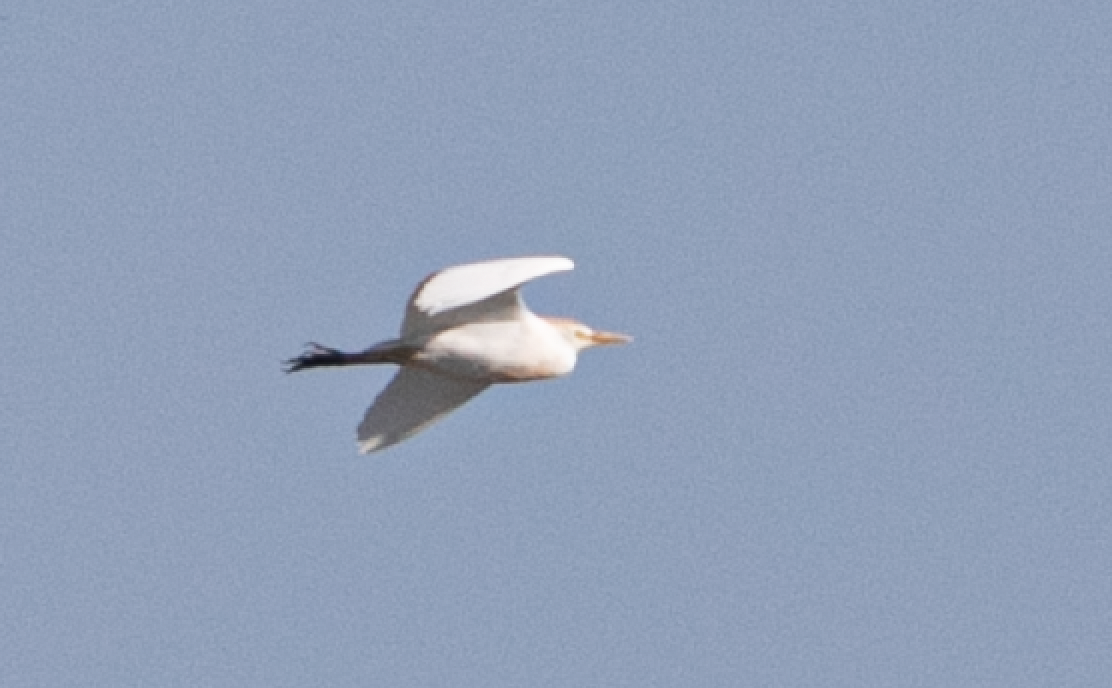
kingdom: Animalia
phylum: Chordata
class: Aves
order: Pelecaniformes
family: Ardeidae
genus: Bubulcus
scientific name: Bubulcus ibis
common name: Cattle egret
